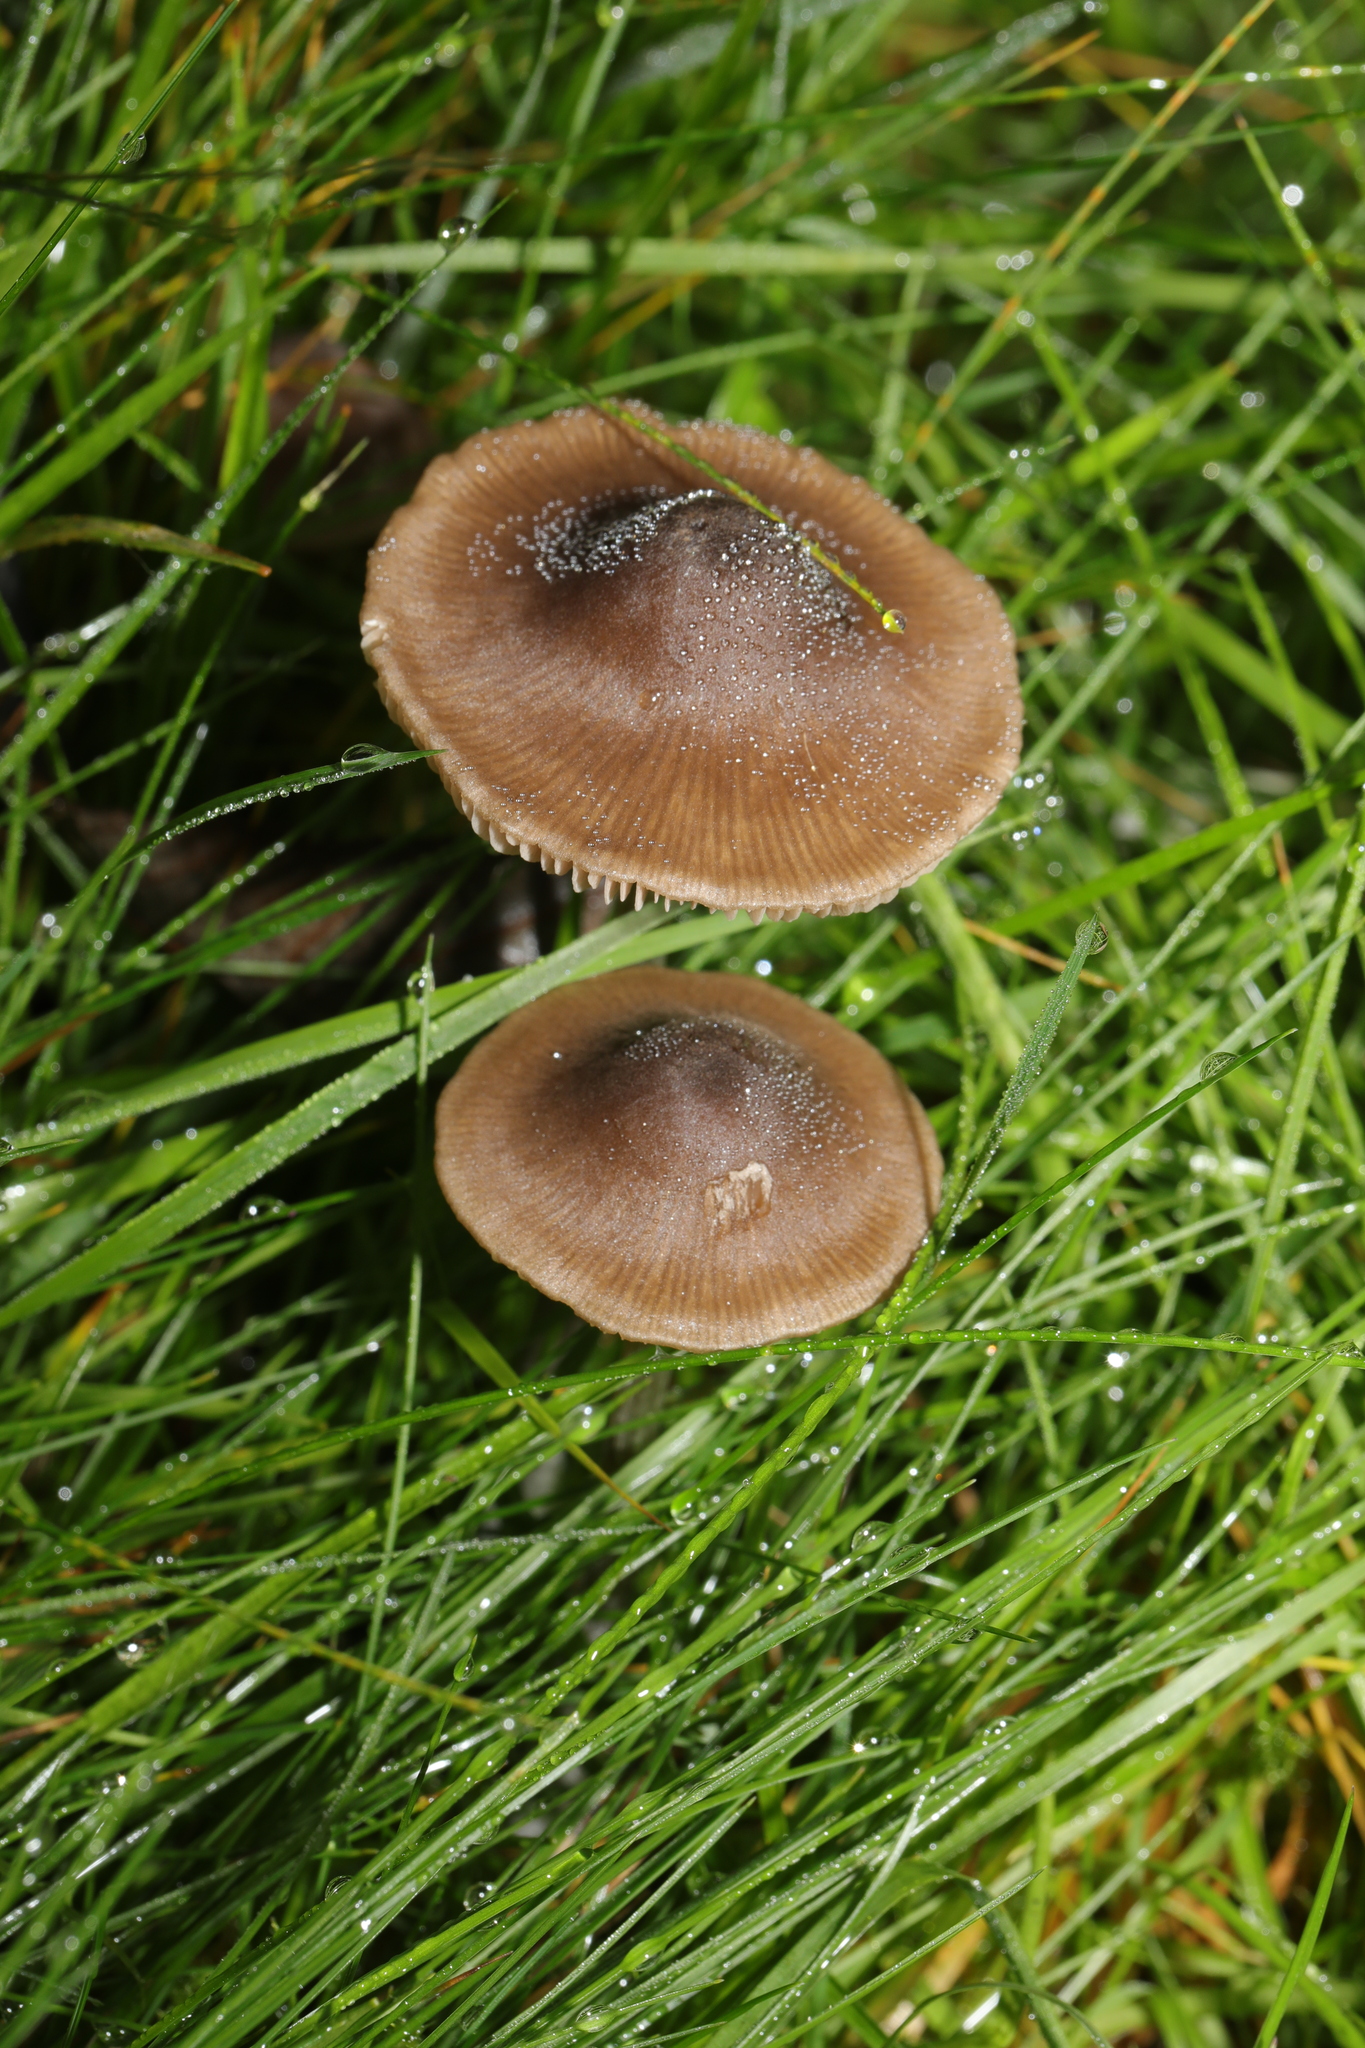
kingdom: Fungi
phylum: Basidiomycota
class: Agaricomycetes
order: Agaricales
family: Entolomataceae
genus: Entoloma
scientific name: Entoloma conferendum
